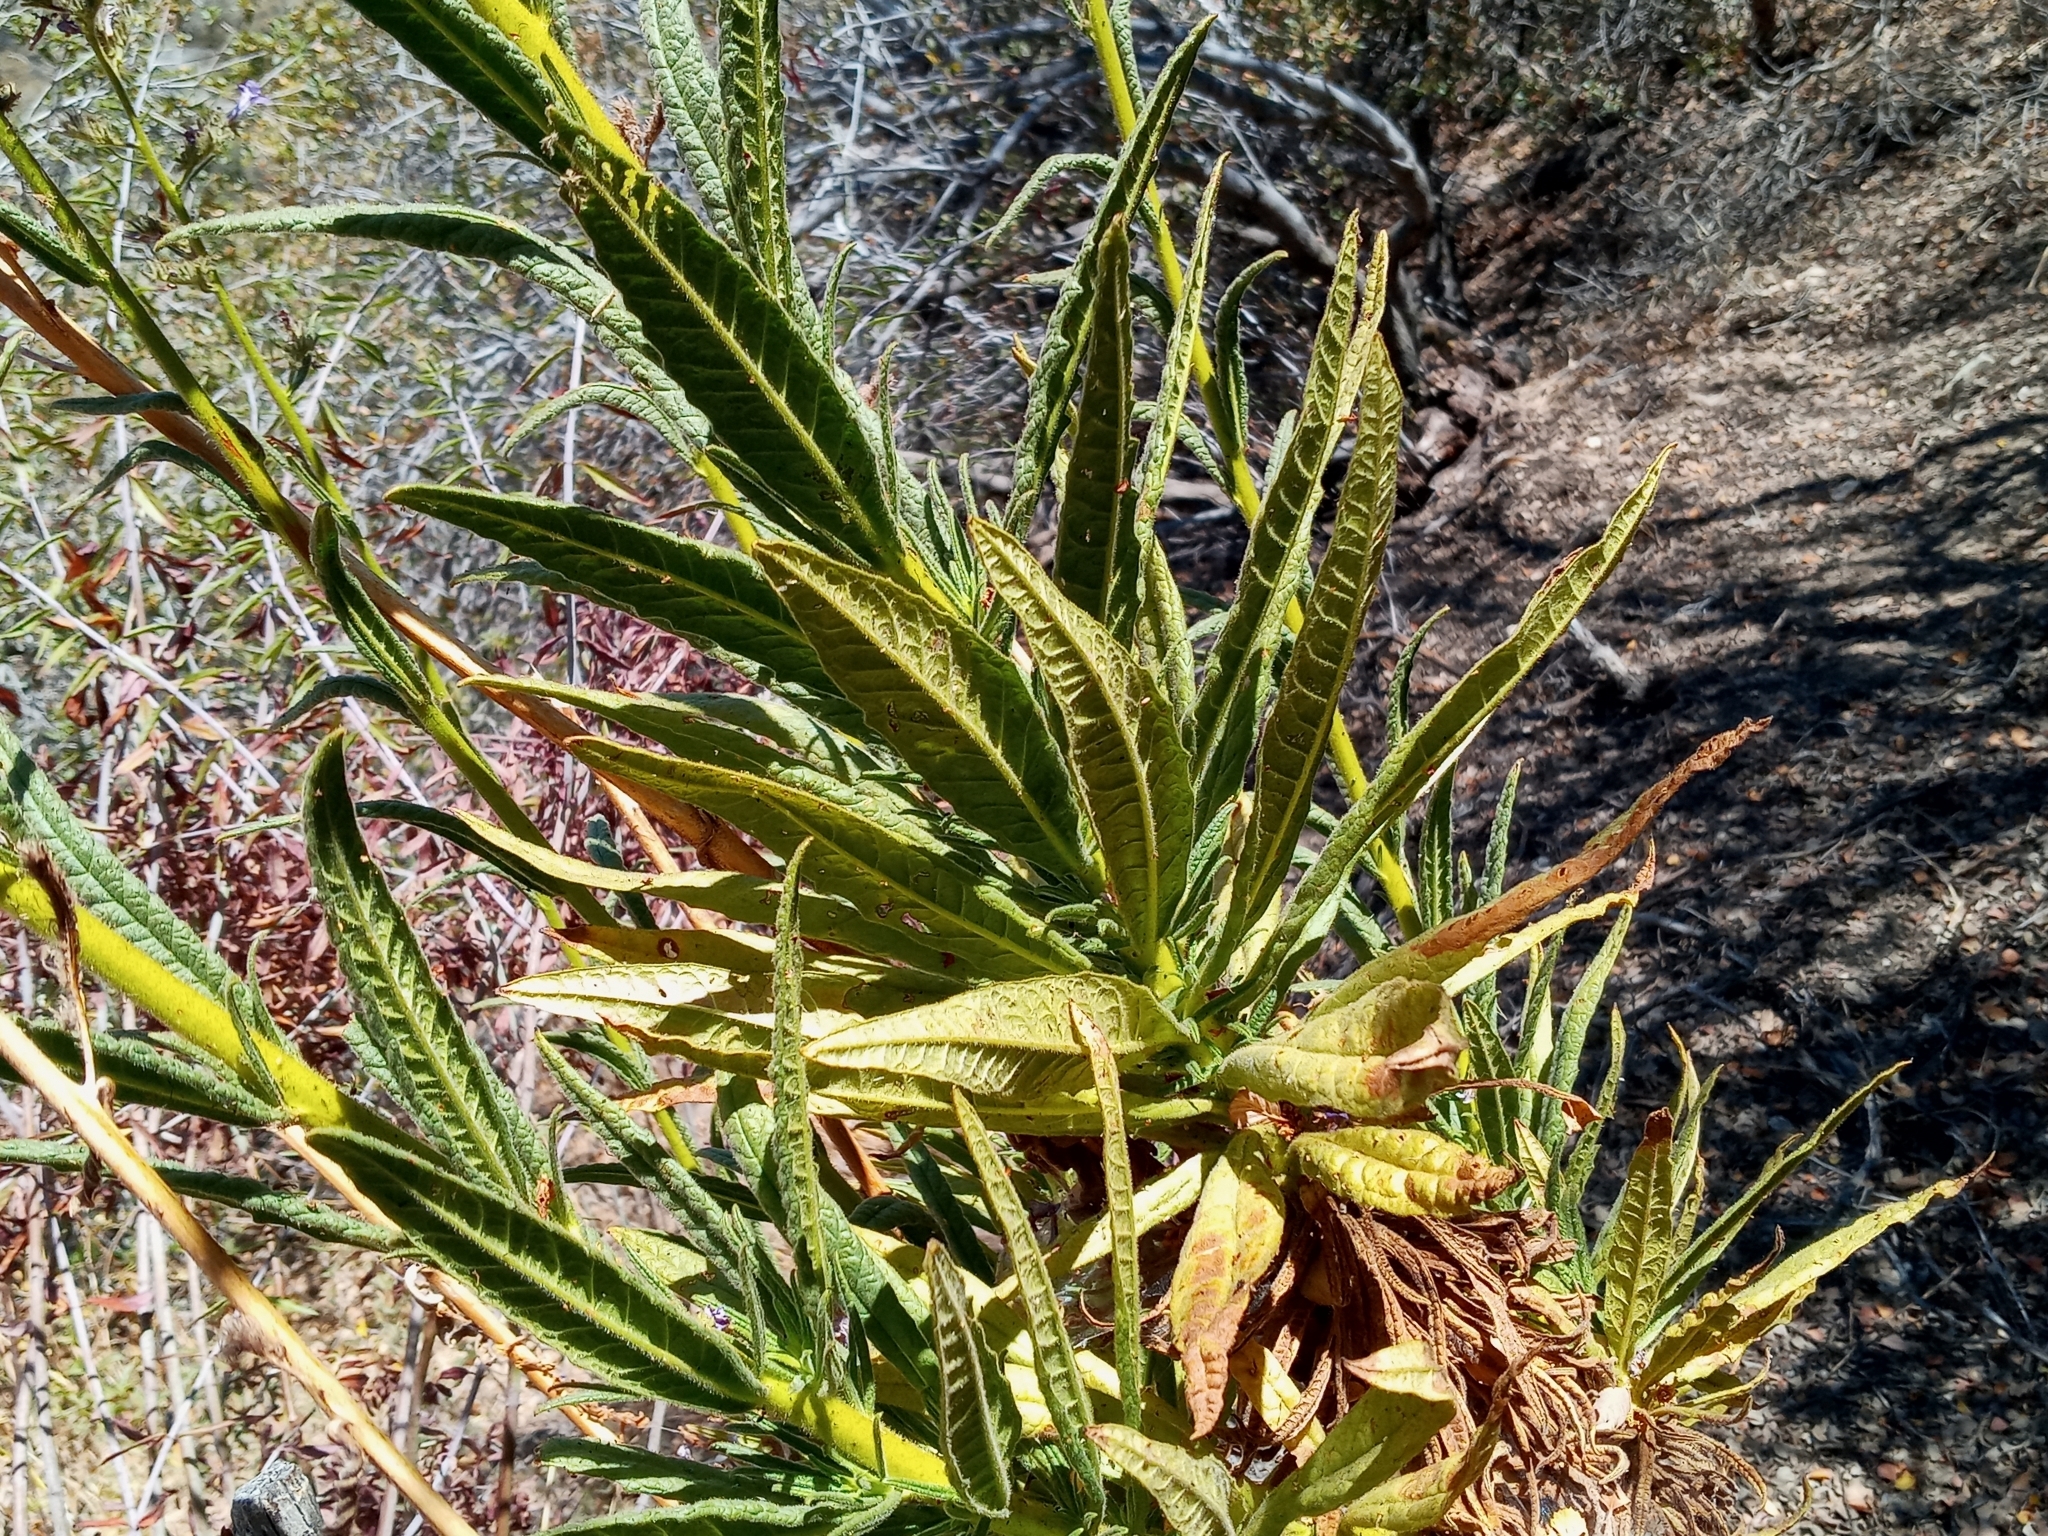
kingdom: Plantae
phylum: Tracheophyta
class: Magnoliopsida
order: Boraginales
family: Namaceae
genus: Turricula
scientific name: Turricula parryi
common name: Poodle-dog-bush
